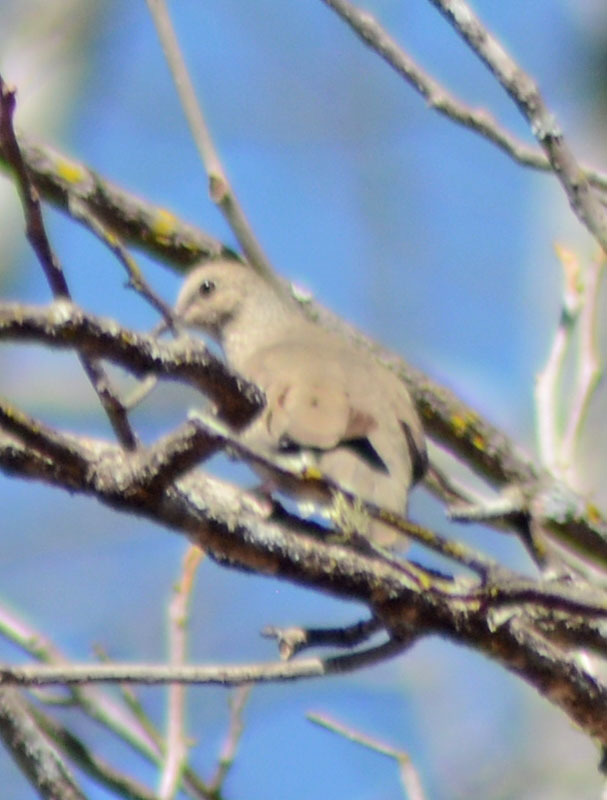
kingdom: Animalia
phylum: Chordata
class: Aves
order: Columbiformes
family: Columbidae
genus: Columbina
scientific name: Columbina passerina
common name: Common ground-dove
